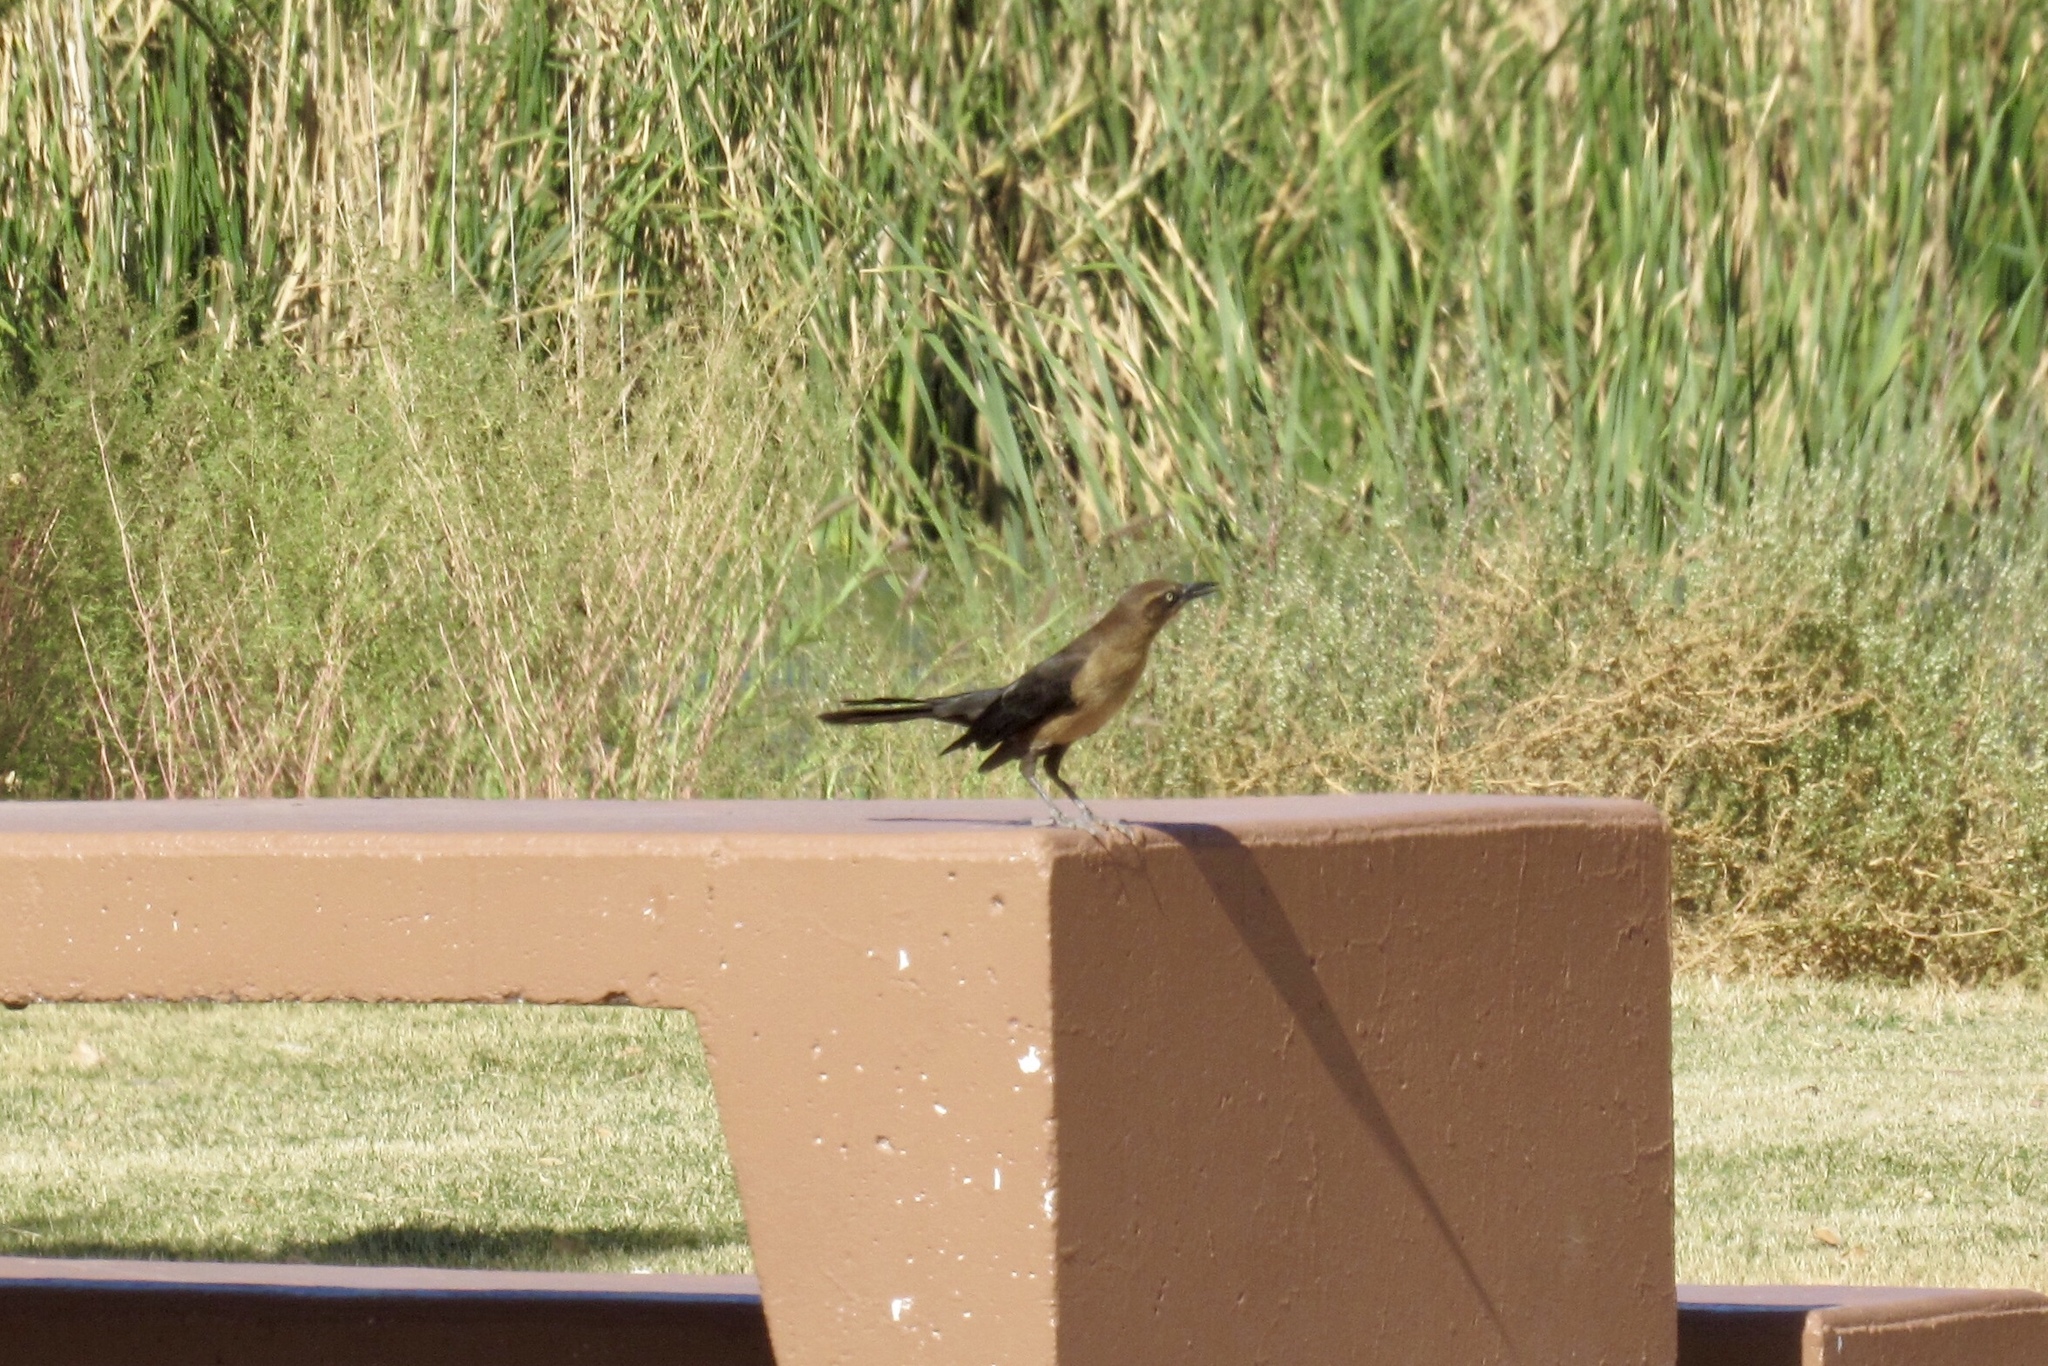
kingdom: Animalia
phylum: Chordata
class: Aves
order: Passeriformes
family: Icteridae
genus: Quiscalus
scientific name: Quiscalus mexicanus
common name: Great-tailed grackle
